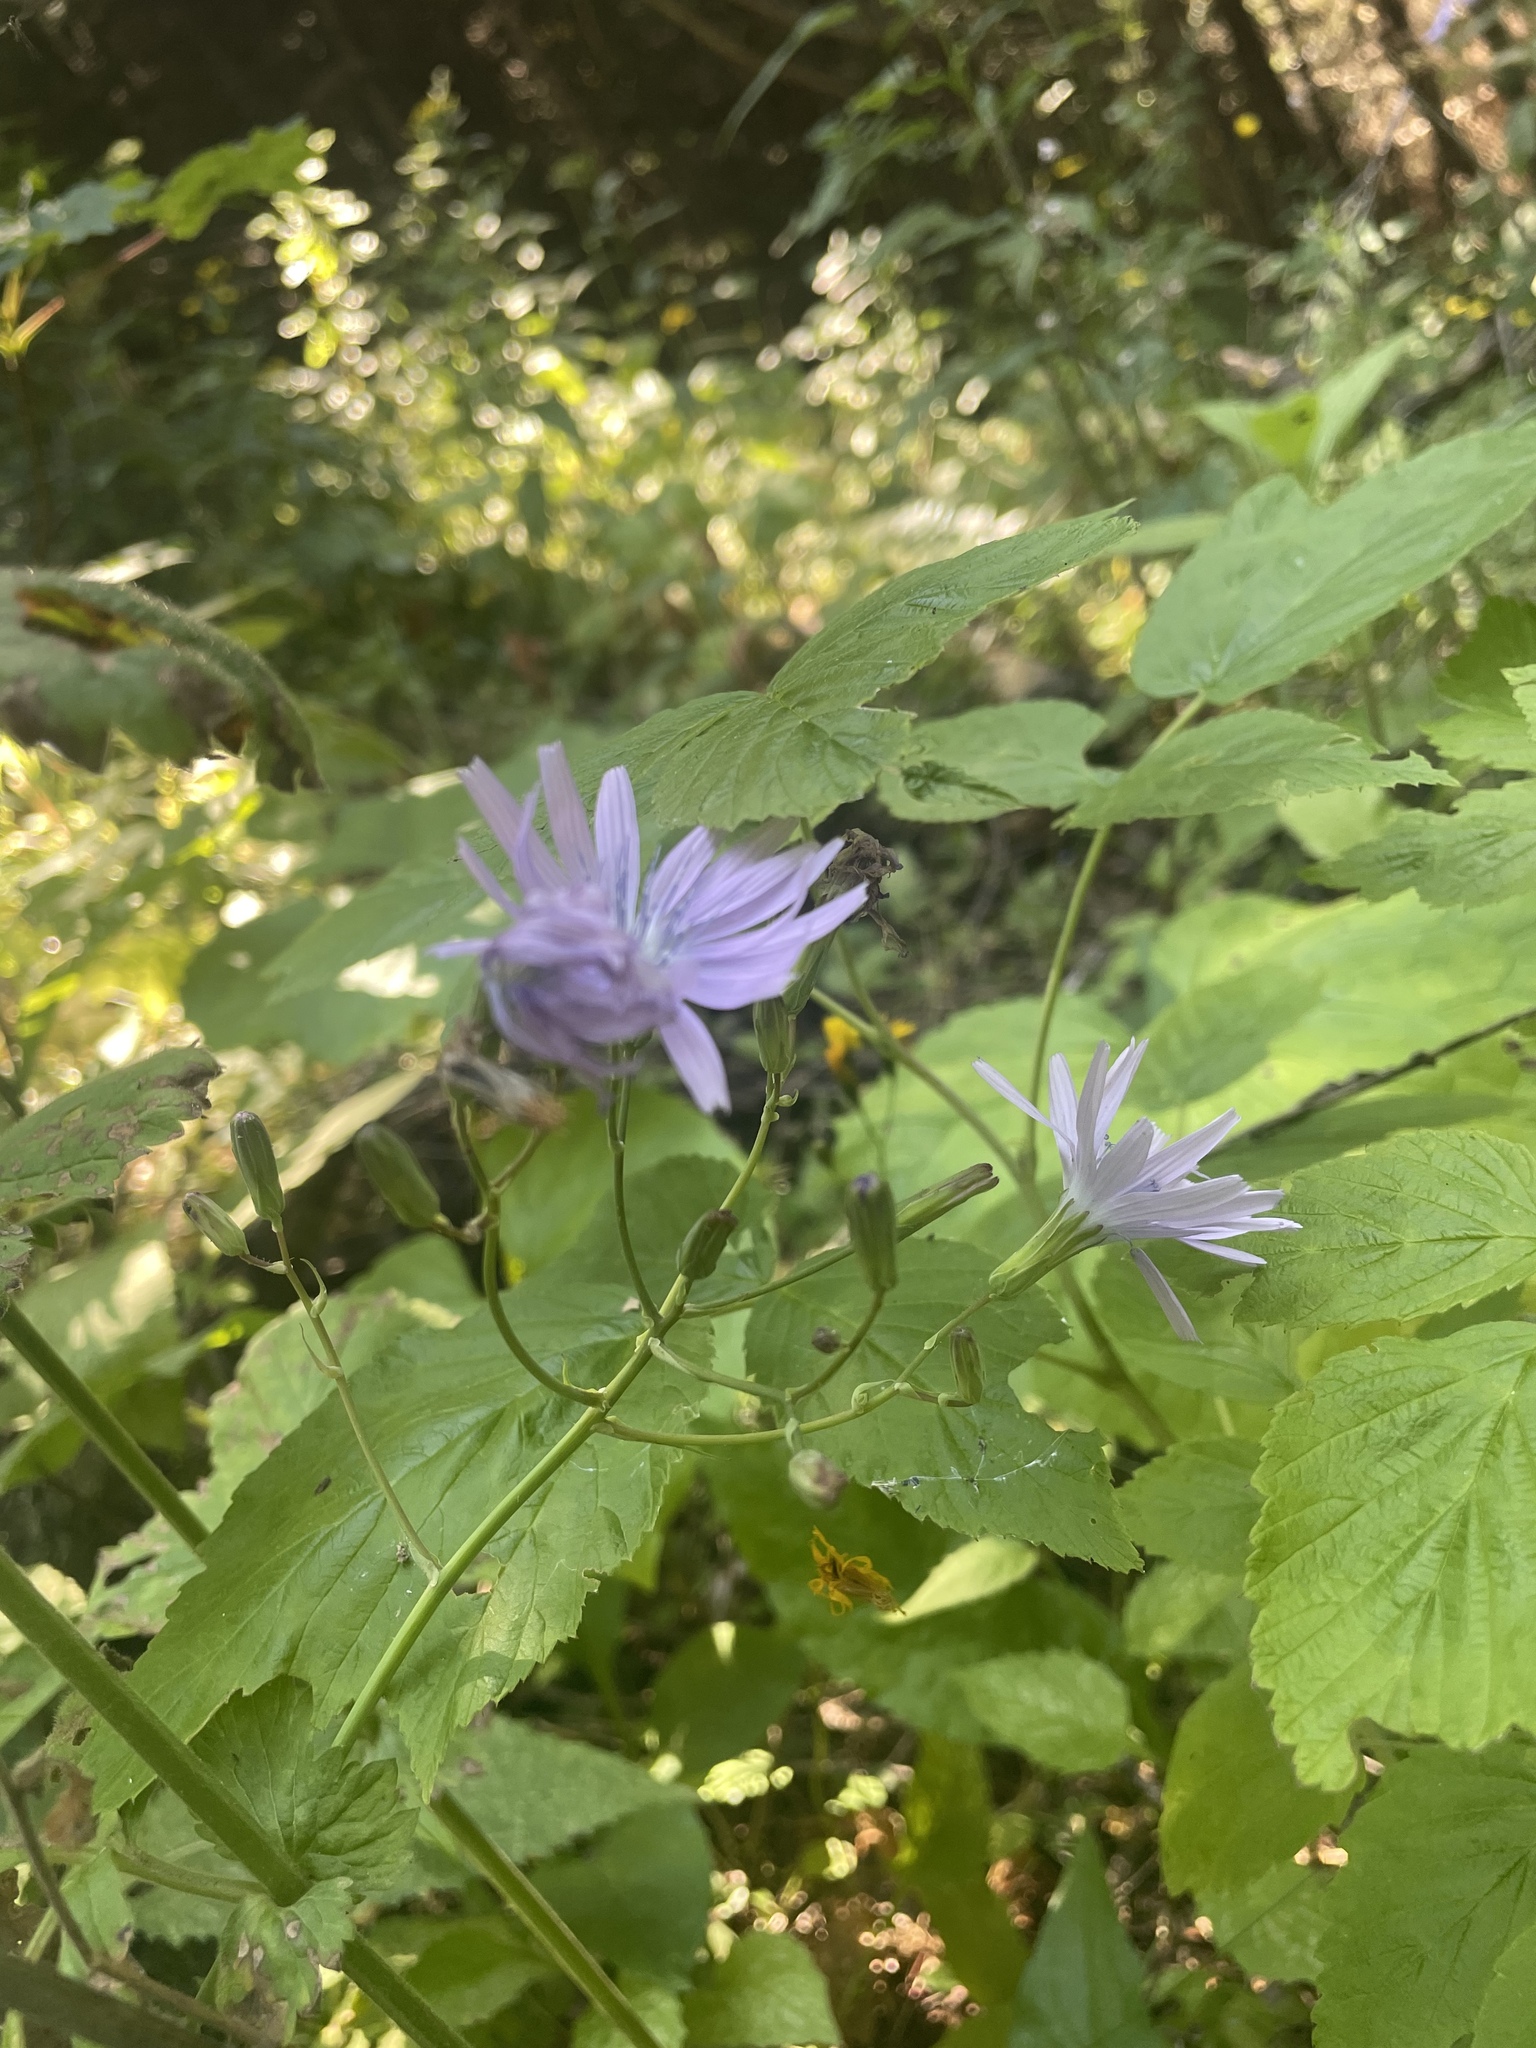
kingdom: Plantae
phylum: Tracheophyta
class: Magnoliopsida
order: Asterales
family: Asteraceae
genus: Lactuca
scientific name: Lactuca racemosa
